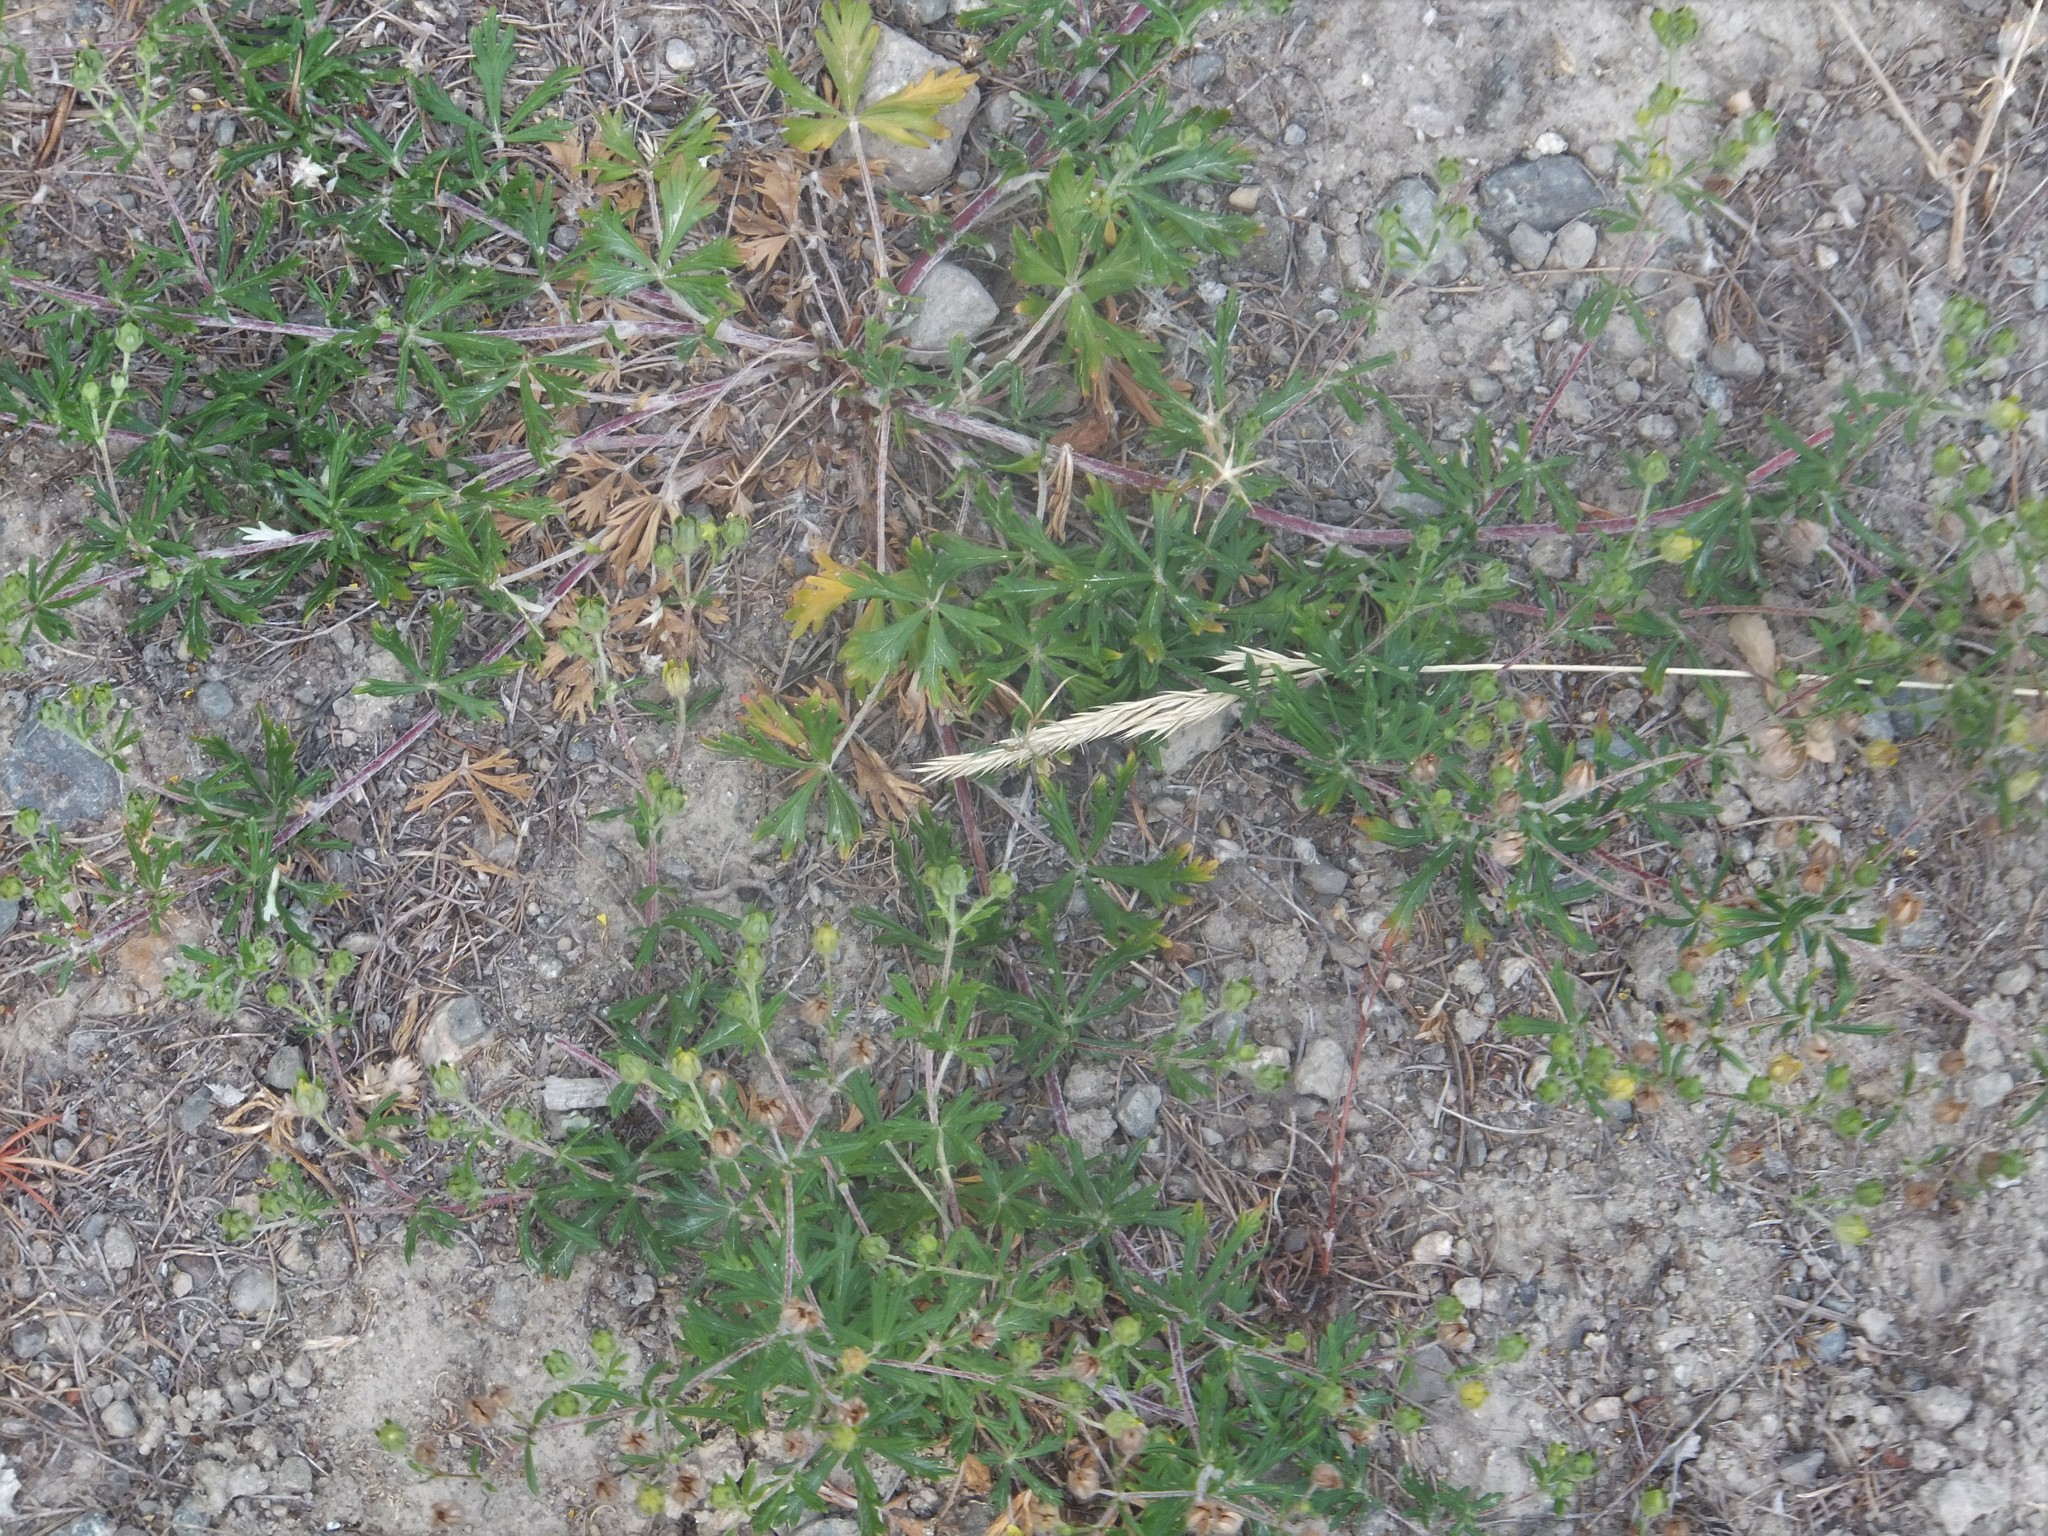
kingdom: Plantae
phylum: Tracheophyta
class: Magnoliopsida
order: Rosales
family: Rosaceae
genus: Potentilla
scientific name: Potentilla argentea
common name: Hoary cinquefoil
